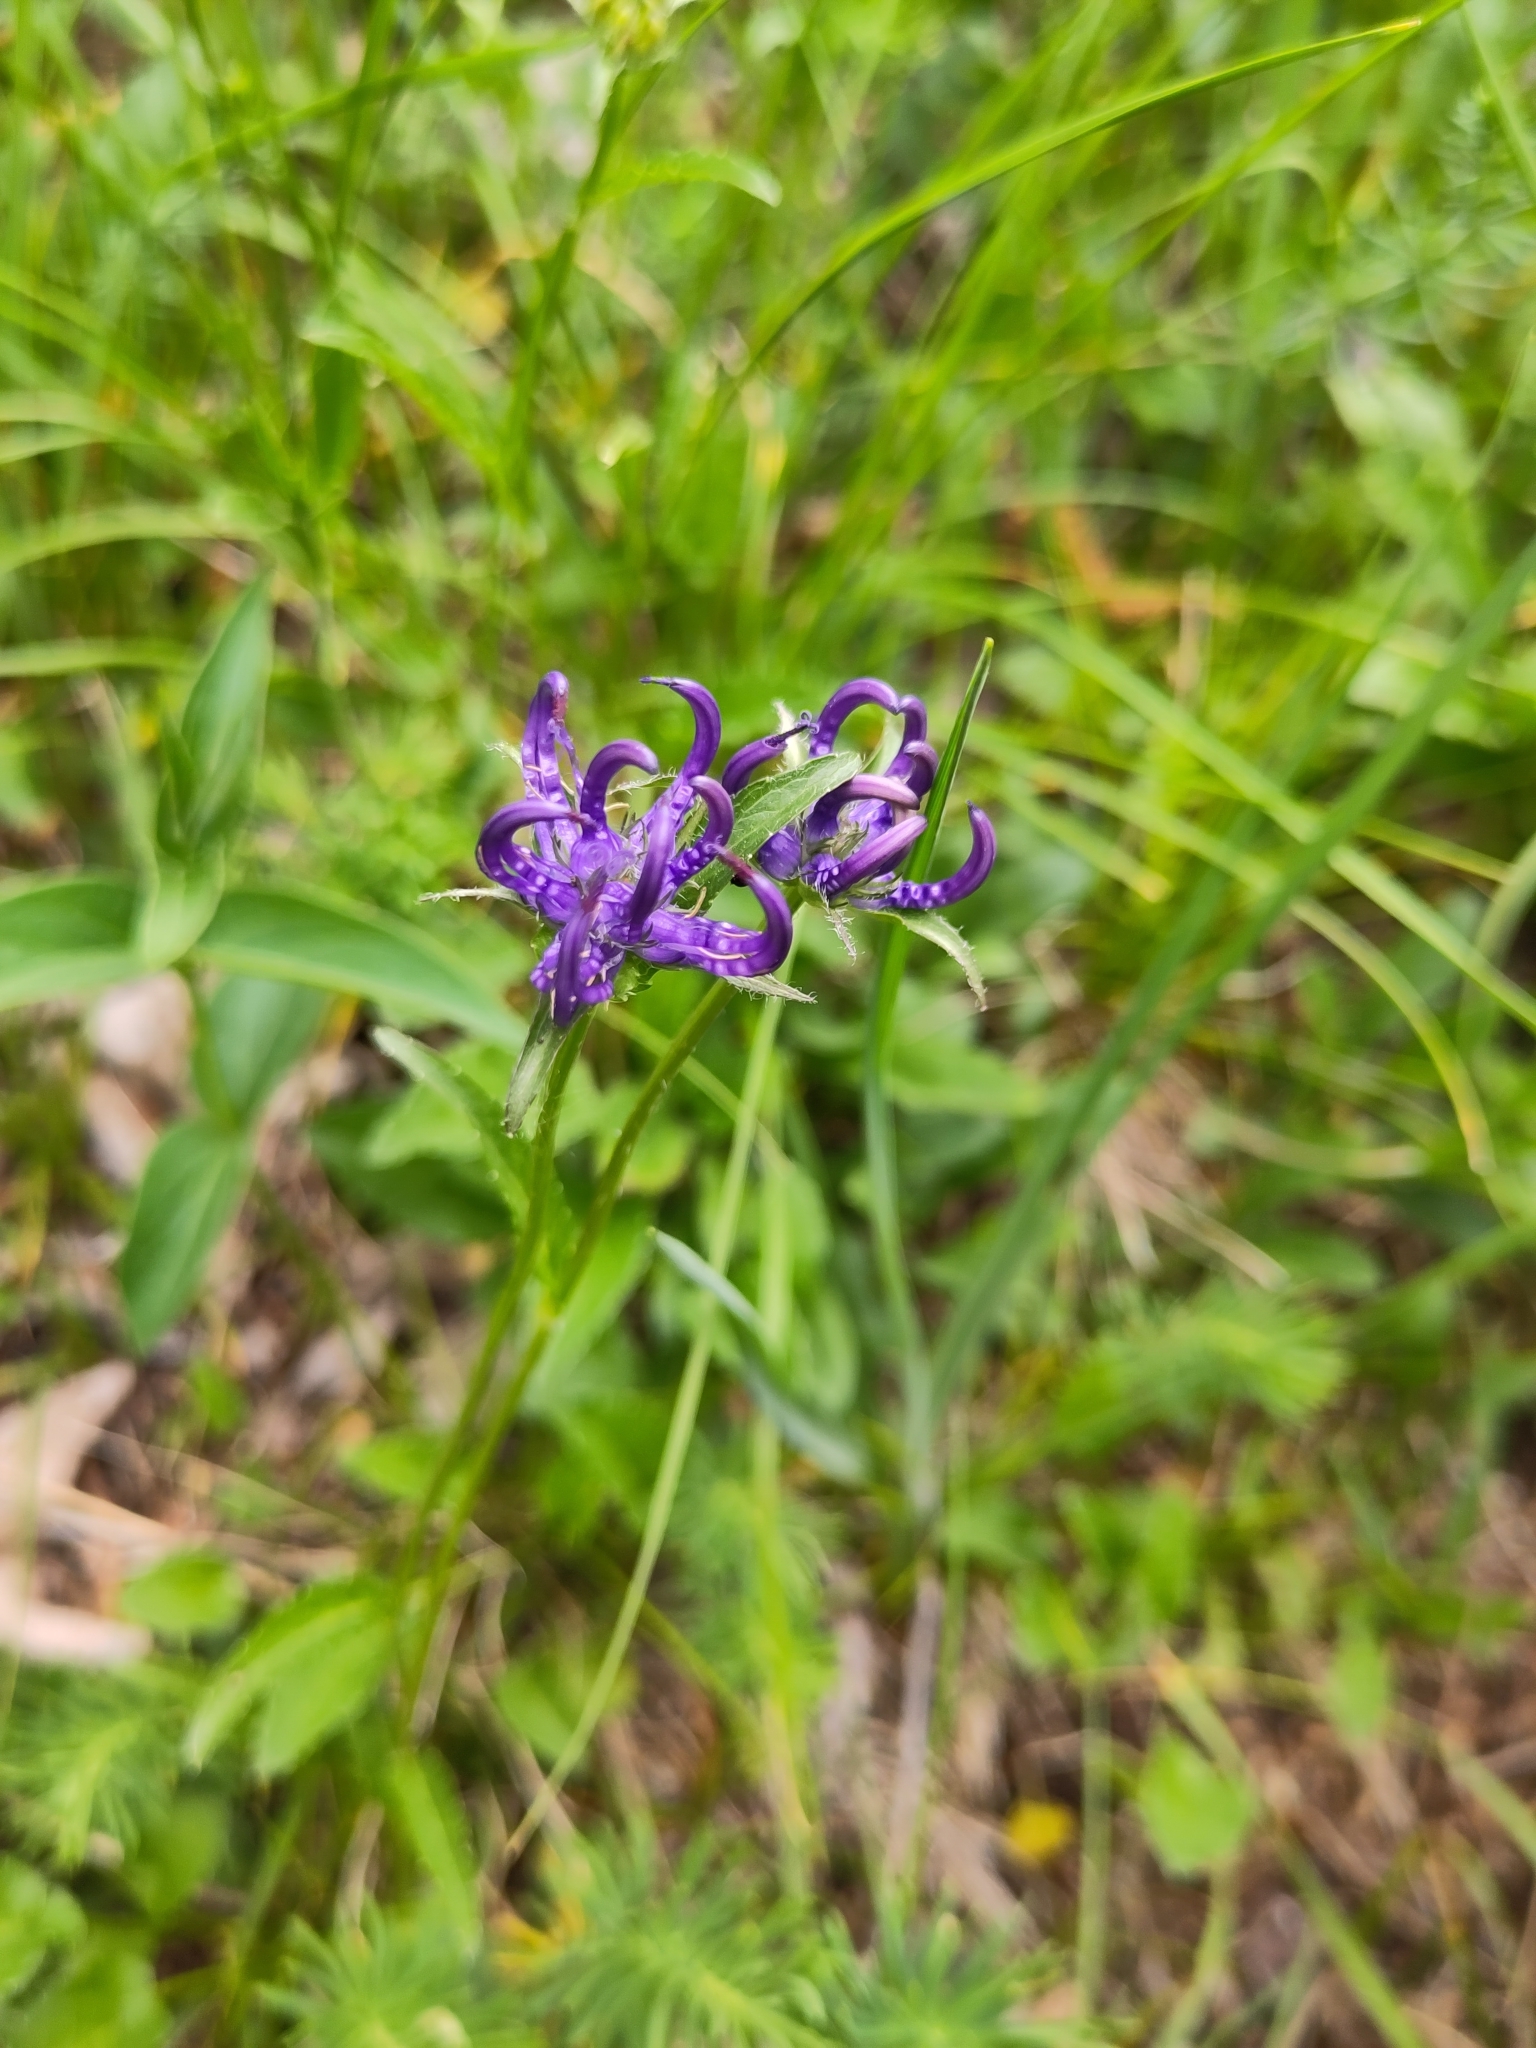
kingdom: Plantae
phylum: Tracheophyta
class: Magnoliopsida
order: Asterales
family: Campanulaceae
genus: Phyteuma
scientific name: Phyteuma orbiculare
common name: Round-headed rampion
